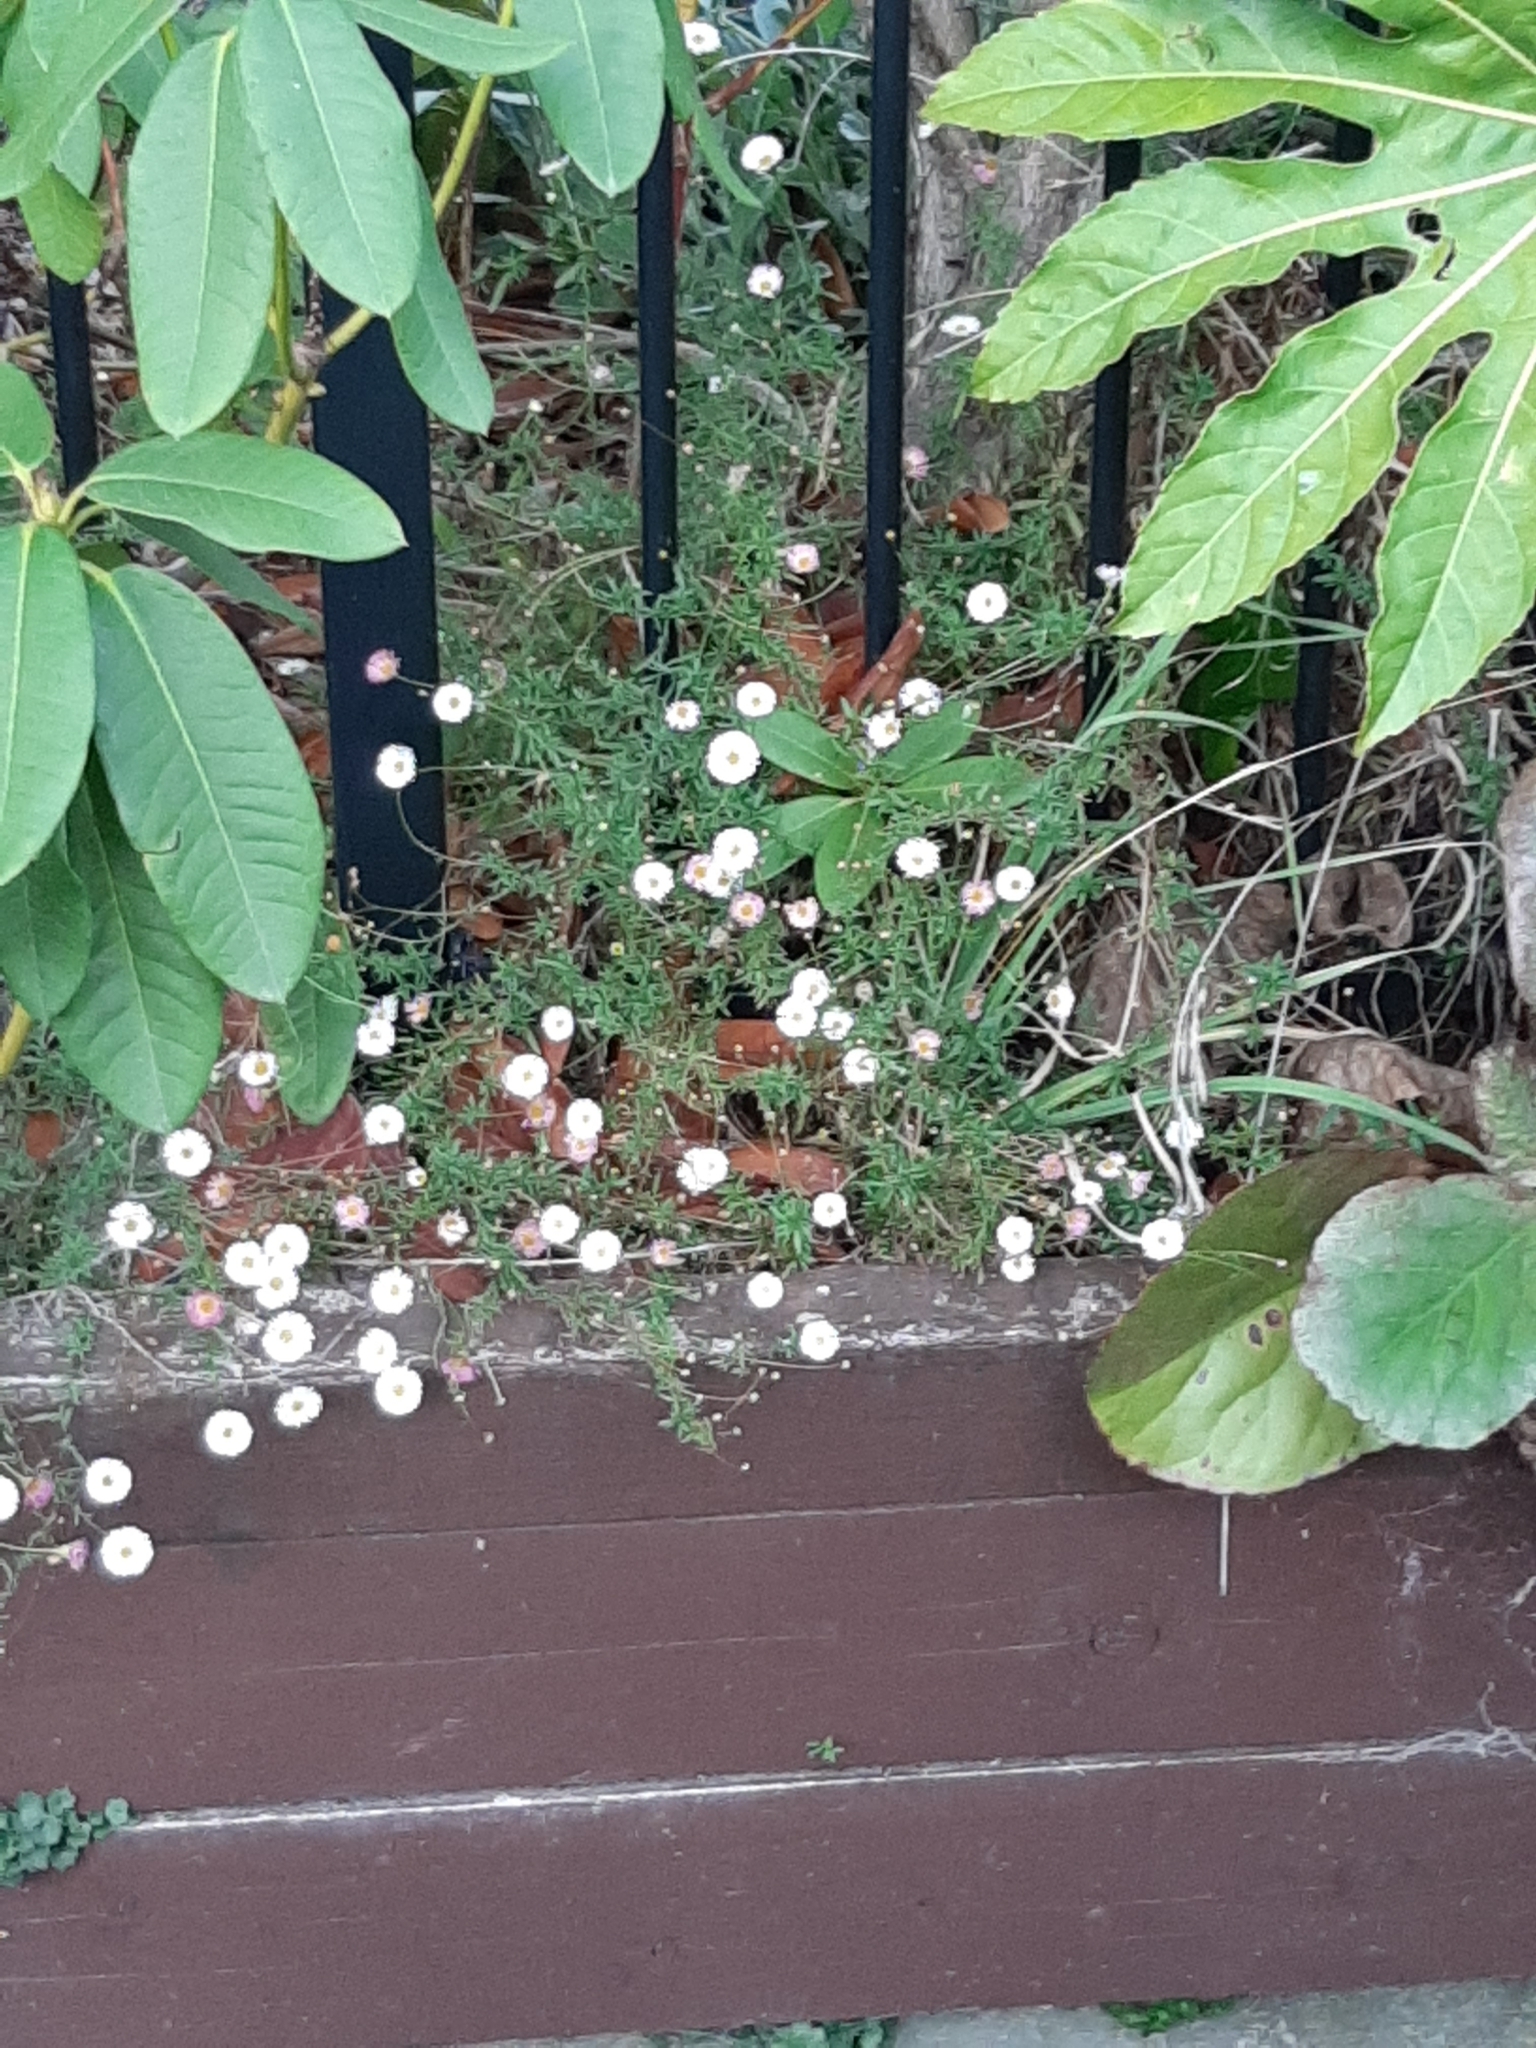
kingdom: Plantae
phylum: Tracheophyta
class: Magnoliopsida
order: Asterales
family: Asteraceae
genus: Erigeron
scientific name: Erigeron karvinskianus
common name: Mexican fleabane
